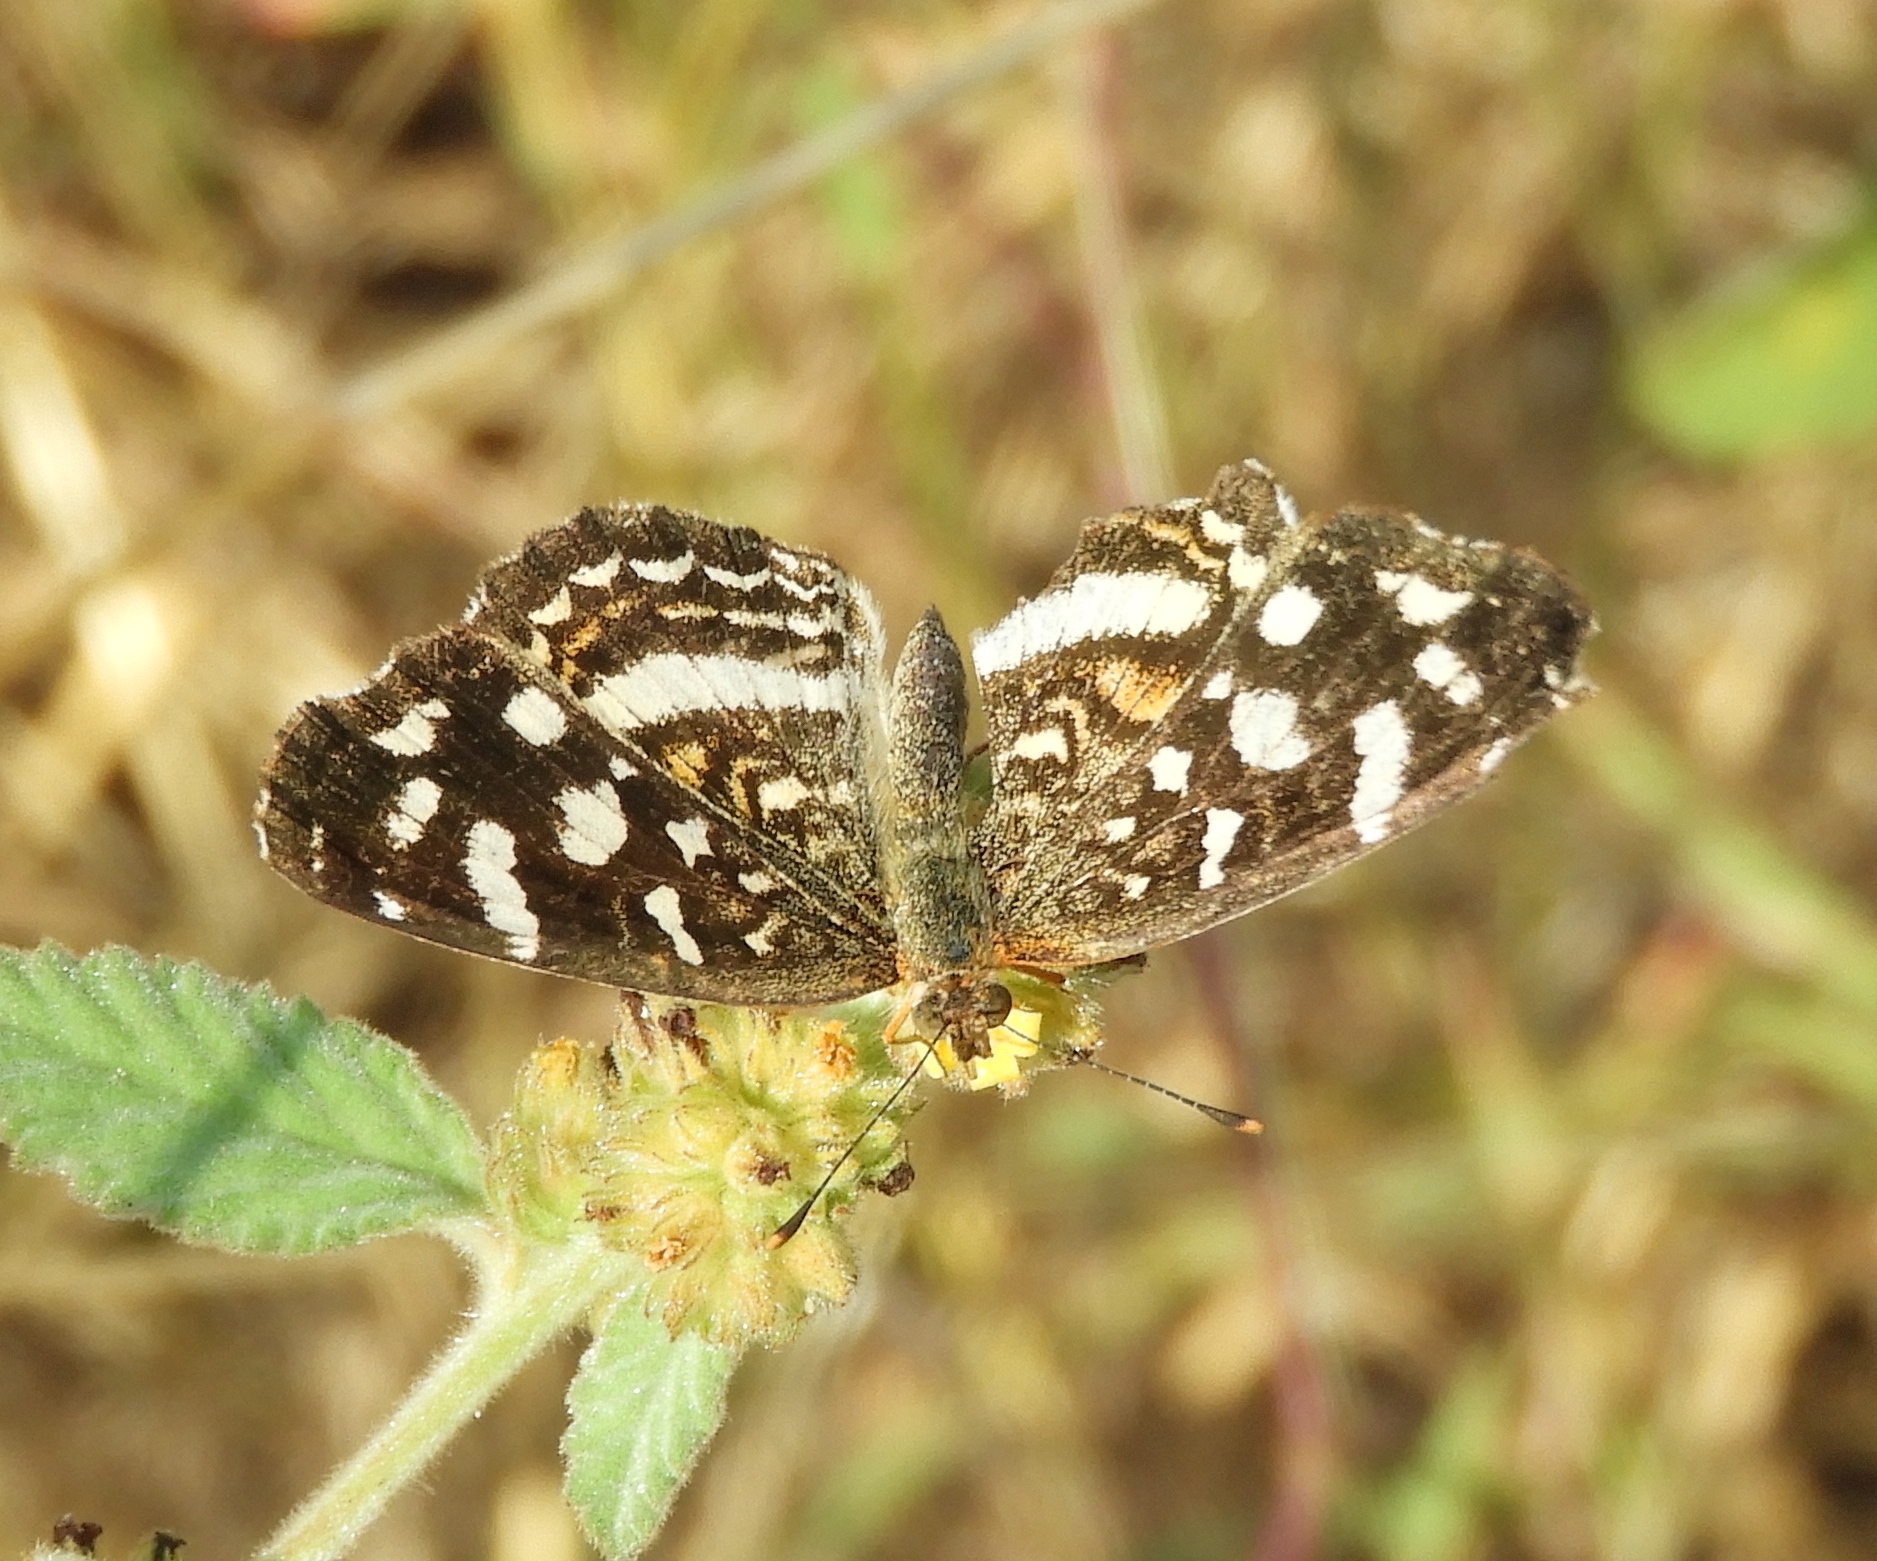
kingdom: Animalia
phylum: Arthropoda
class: Insecta
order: Lepidoptera
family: Nymphalidae
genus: Anthanassa
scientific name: Anthanassa tulcis
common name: Pale-banded crescent
